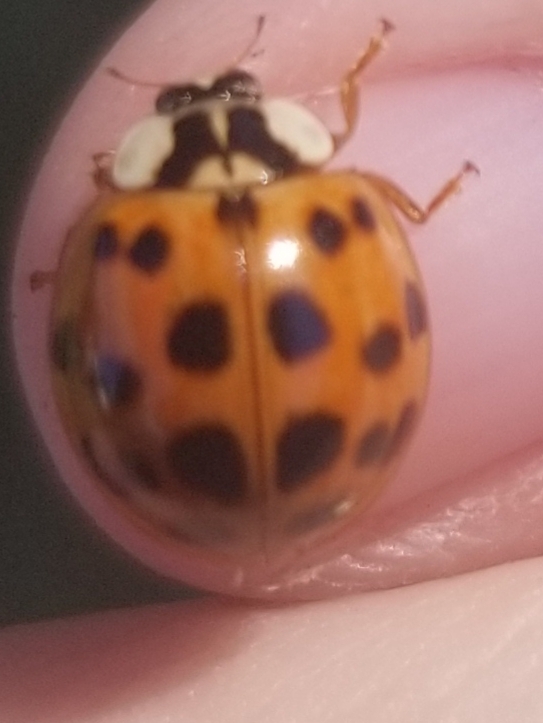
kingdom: Fungi
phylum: Ascomycota
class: Laboulbeniomycetes
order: Laboulbeniales
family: Laboulbeniaceae
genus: Hesperomyces
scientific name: Hesperomyces harmoniae
